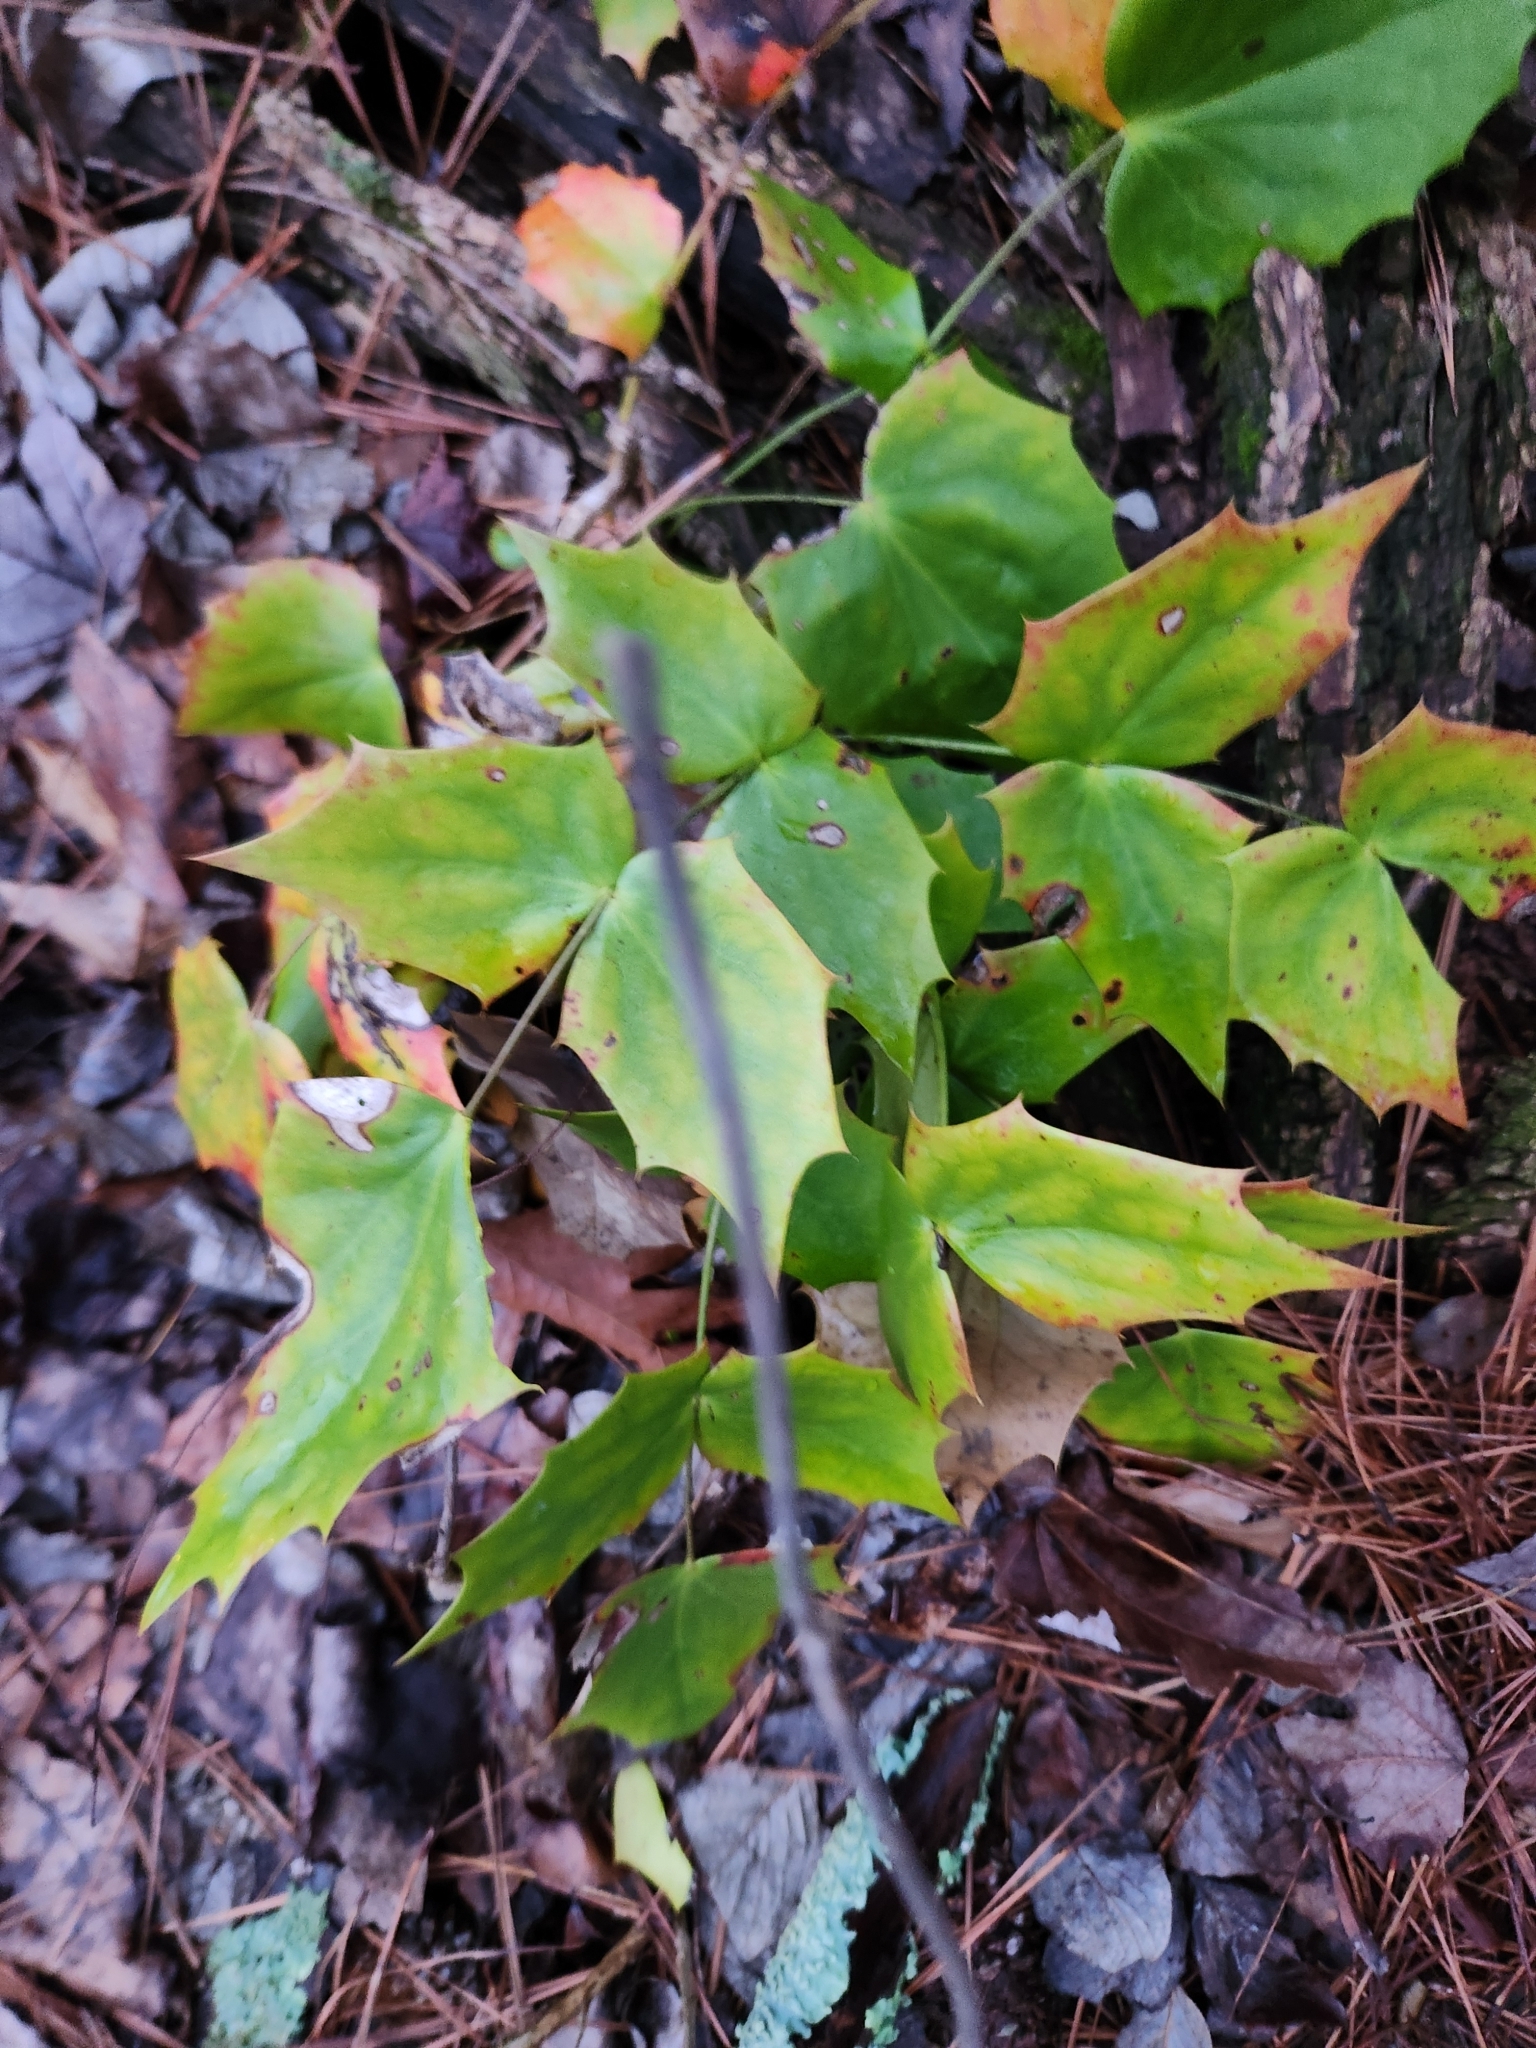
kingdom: Plantae
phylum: Tracheophyta
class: Magnoliopsida
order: Ranunculales
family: Berberidaceae
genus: Mahonia
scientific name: Mahonia bealei
